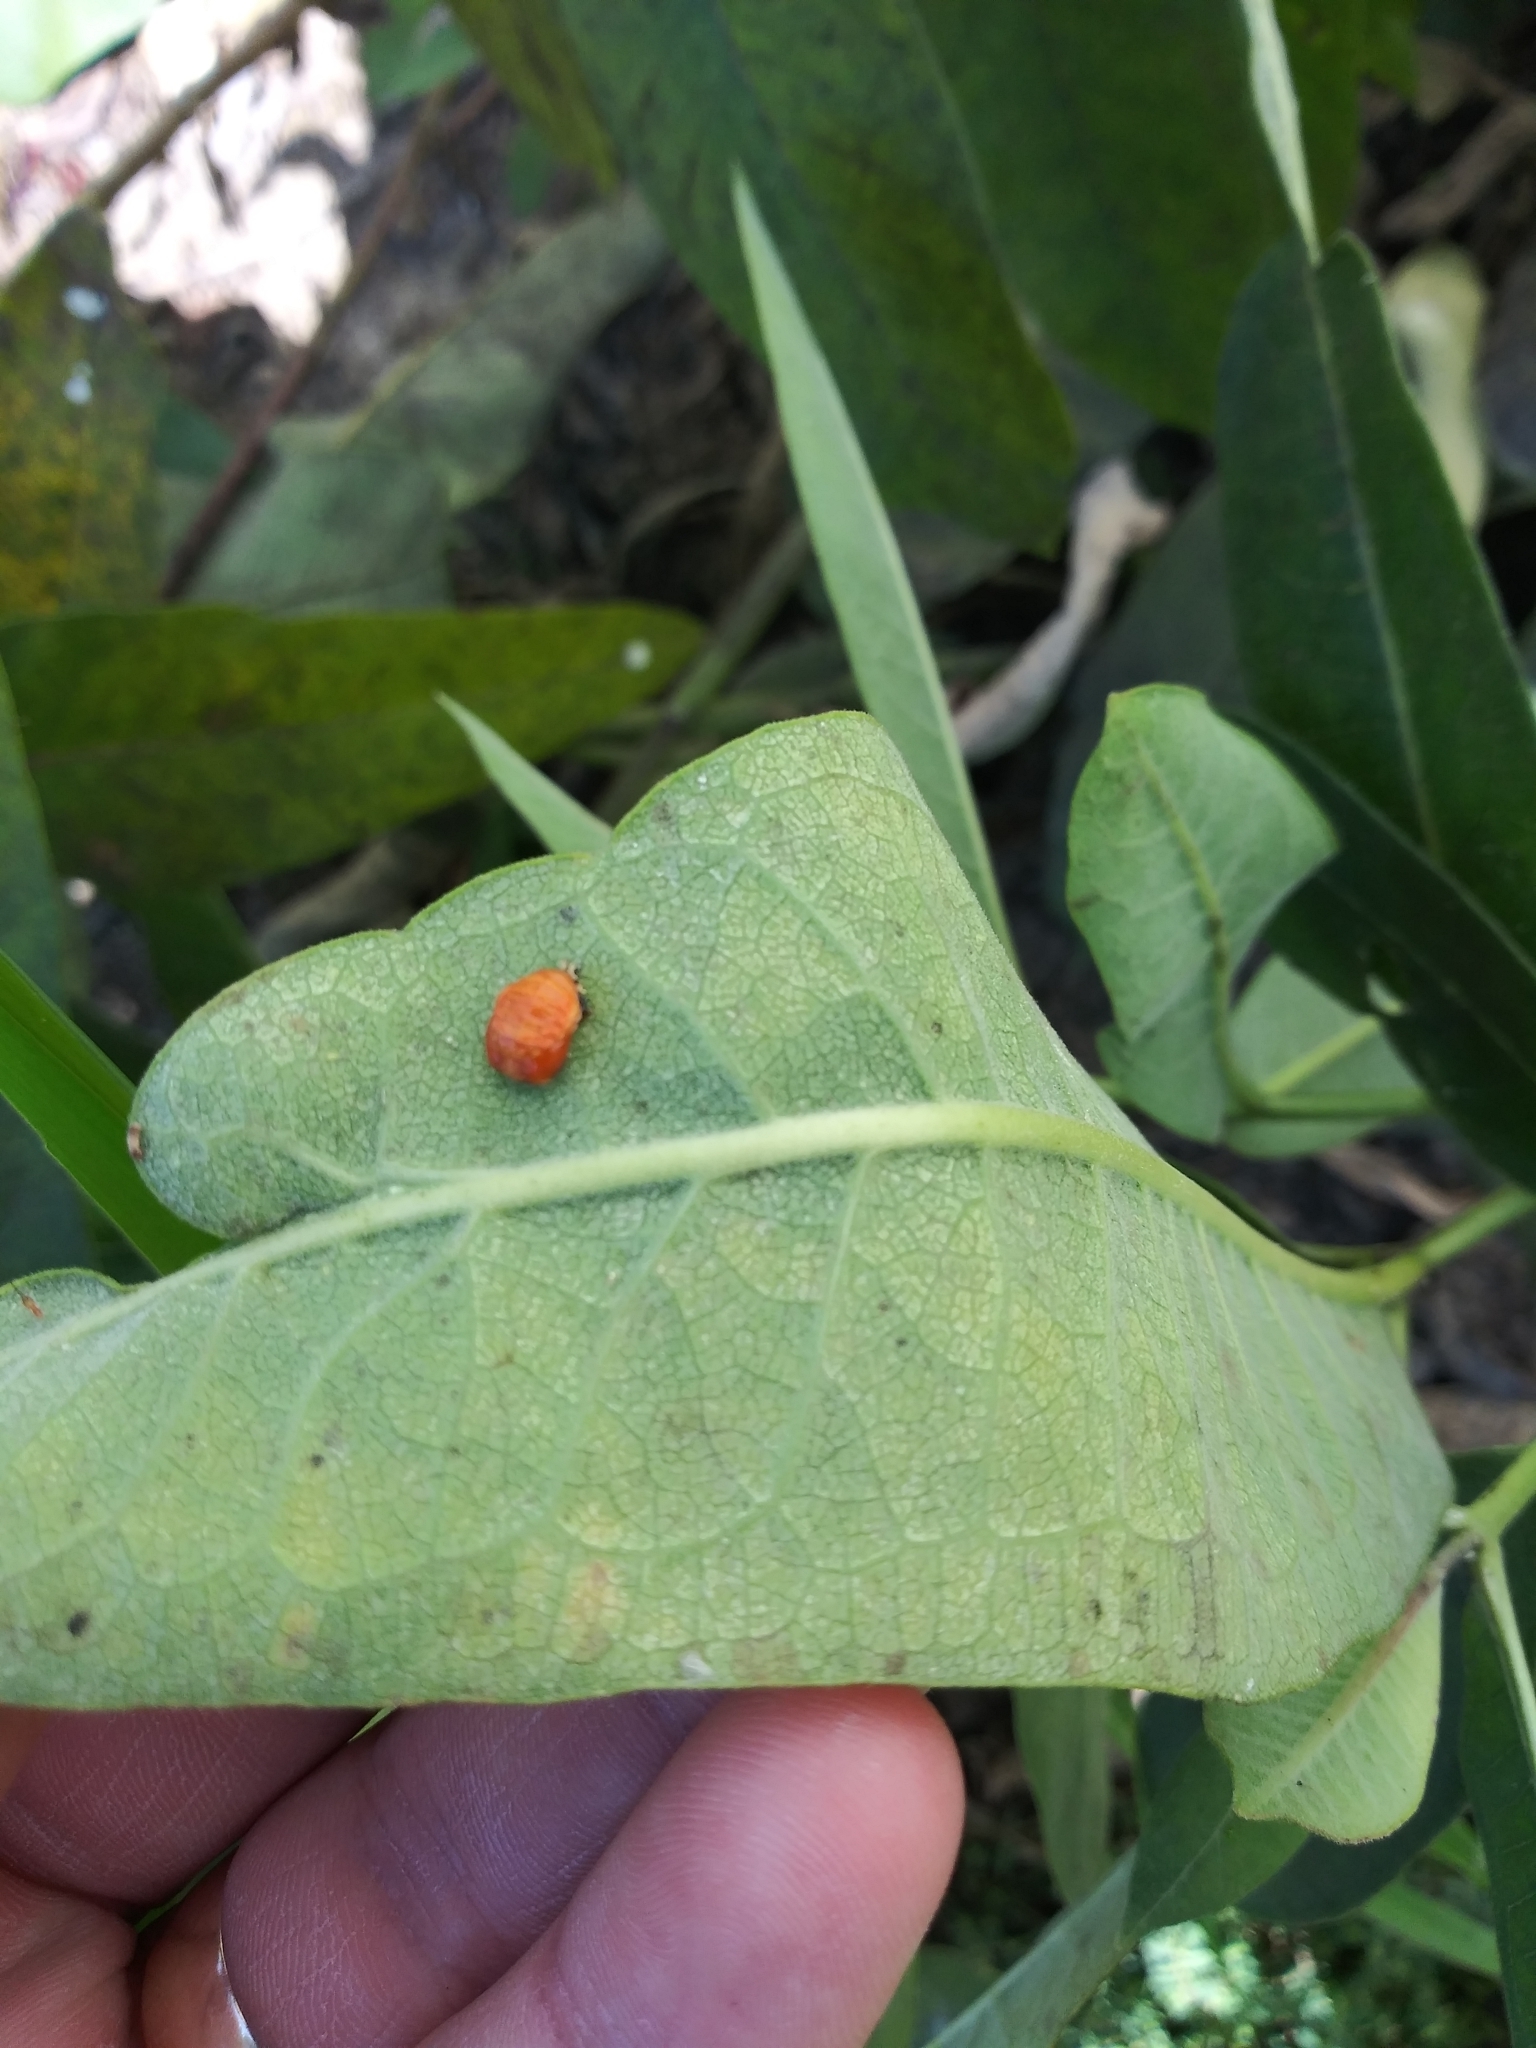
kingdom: Animalia
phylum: Arthropoda
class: Insecta
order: Coleoptera
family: Coccinellidae
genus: Harmonia
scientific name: Harmonia axyridis
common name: Harlequin ladybird
